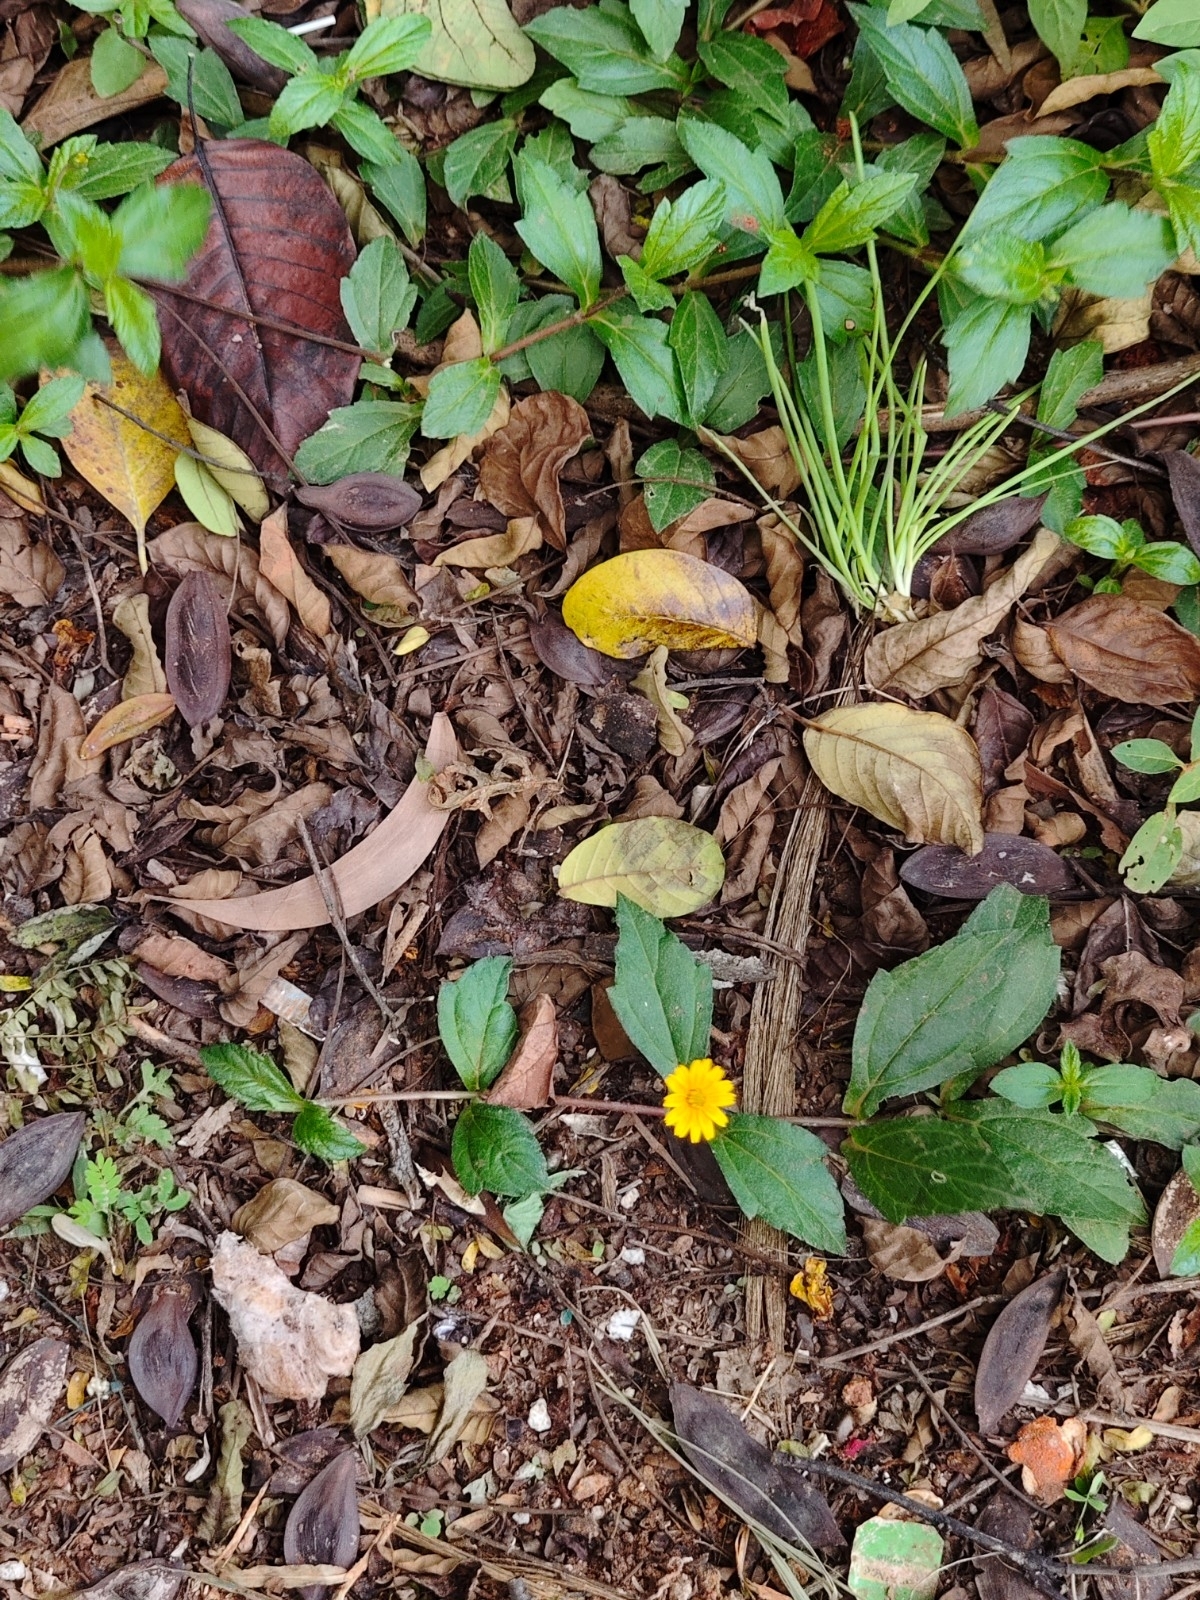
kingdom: Plantae
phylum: Tracheophyta
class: Magnoliopsida
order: Asterales
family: Asteraceae
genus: Sphagneticola
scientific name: Sphagneticola trilobata
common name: Bay biscayne creeping-oxeye
